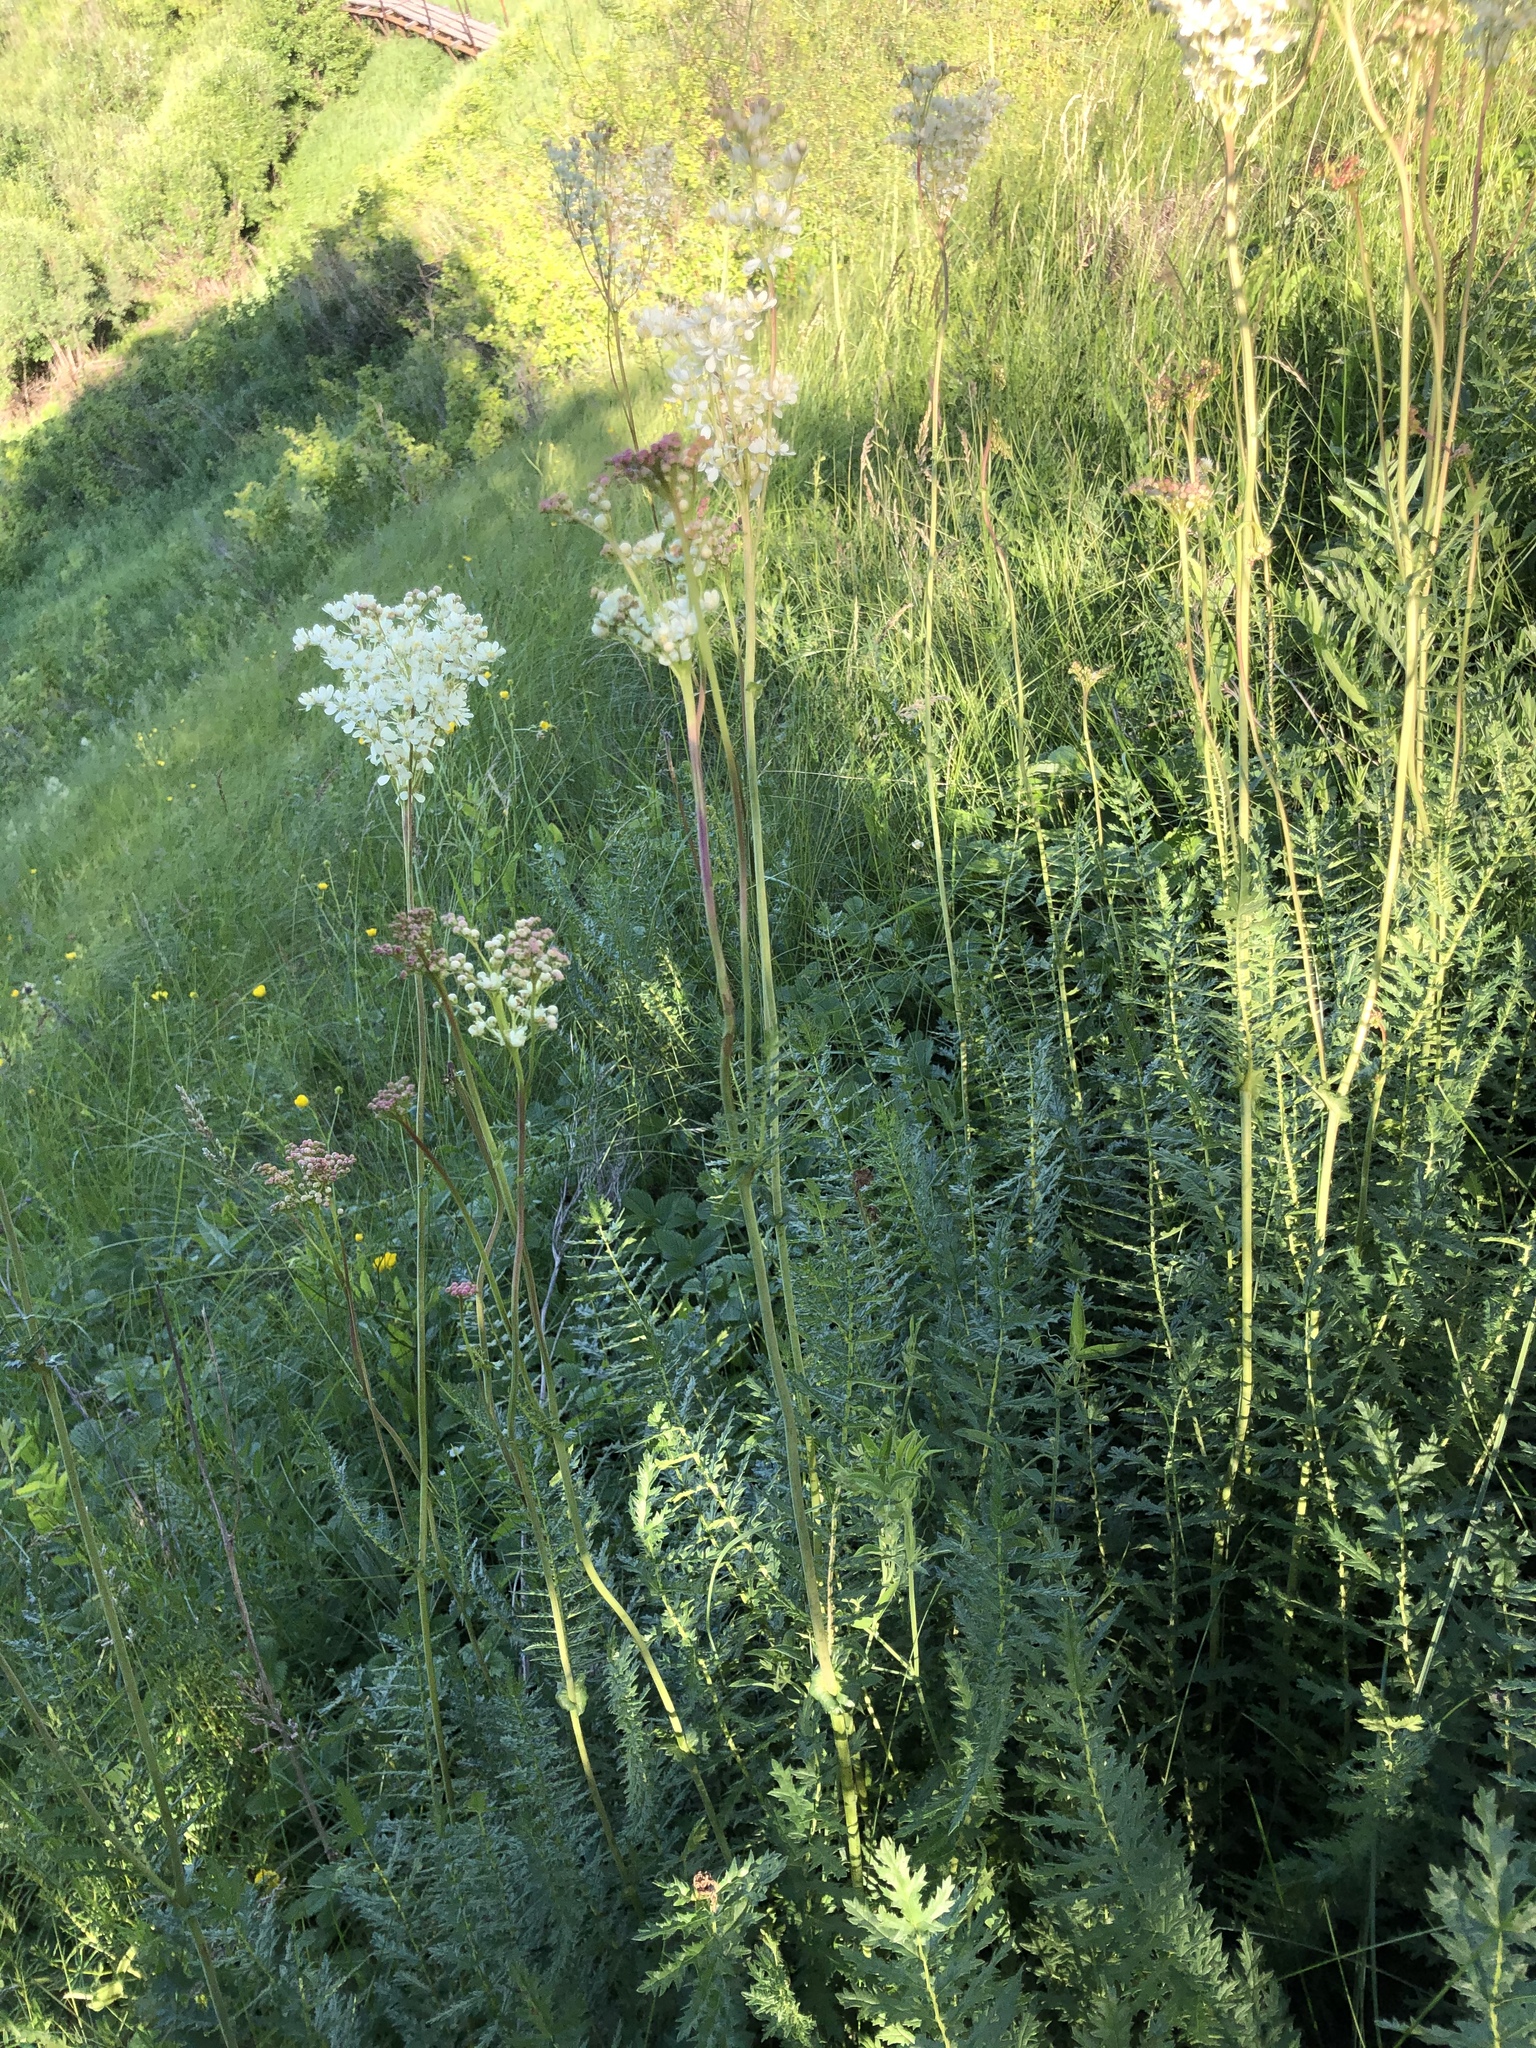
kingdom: Plantae
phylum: Tracheophyta
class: Magnoliopsida
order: Rosales
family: Rosaceae
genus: Filipendula
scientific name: Filipendula vulgaris
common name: Dropwort
